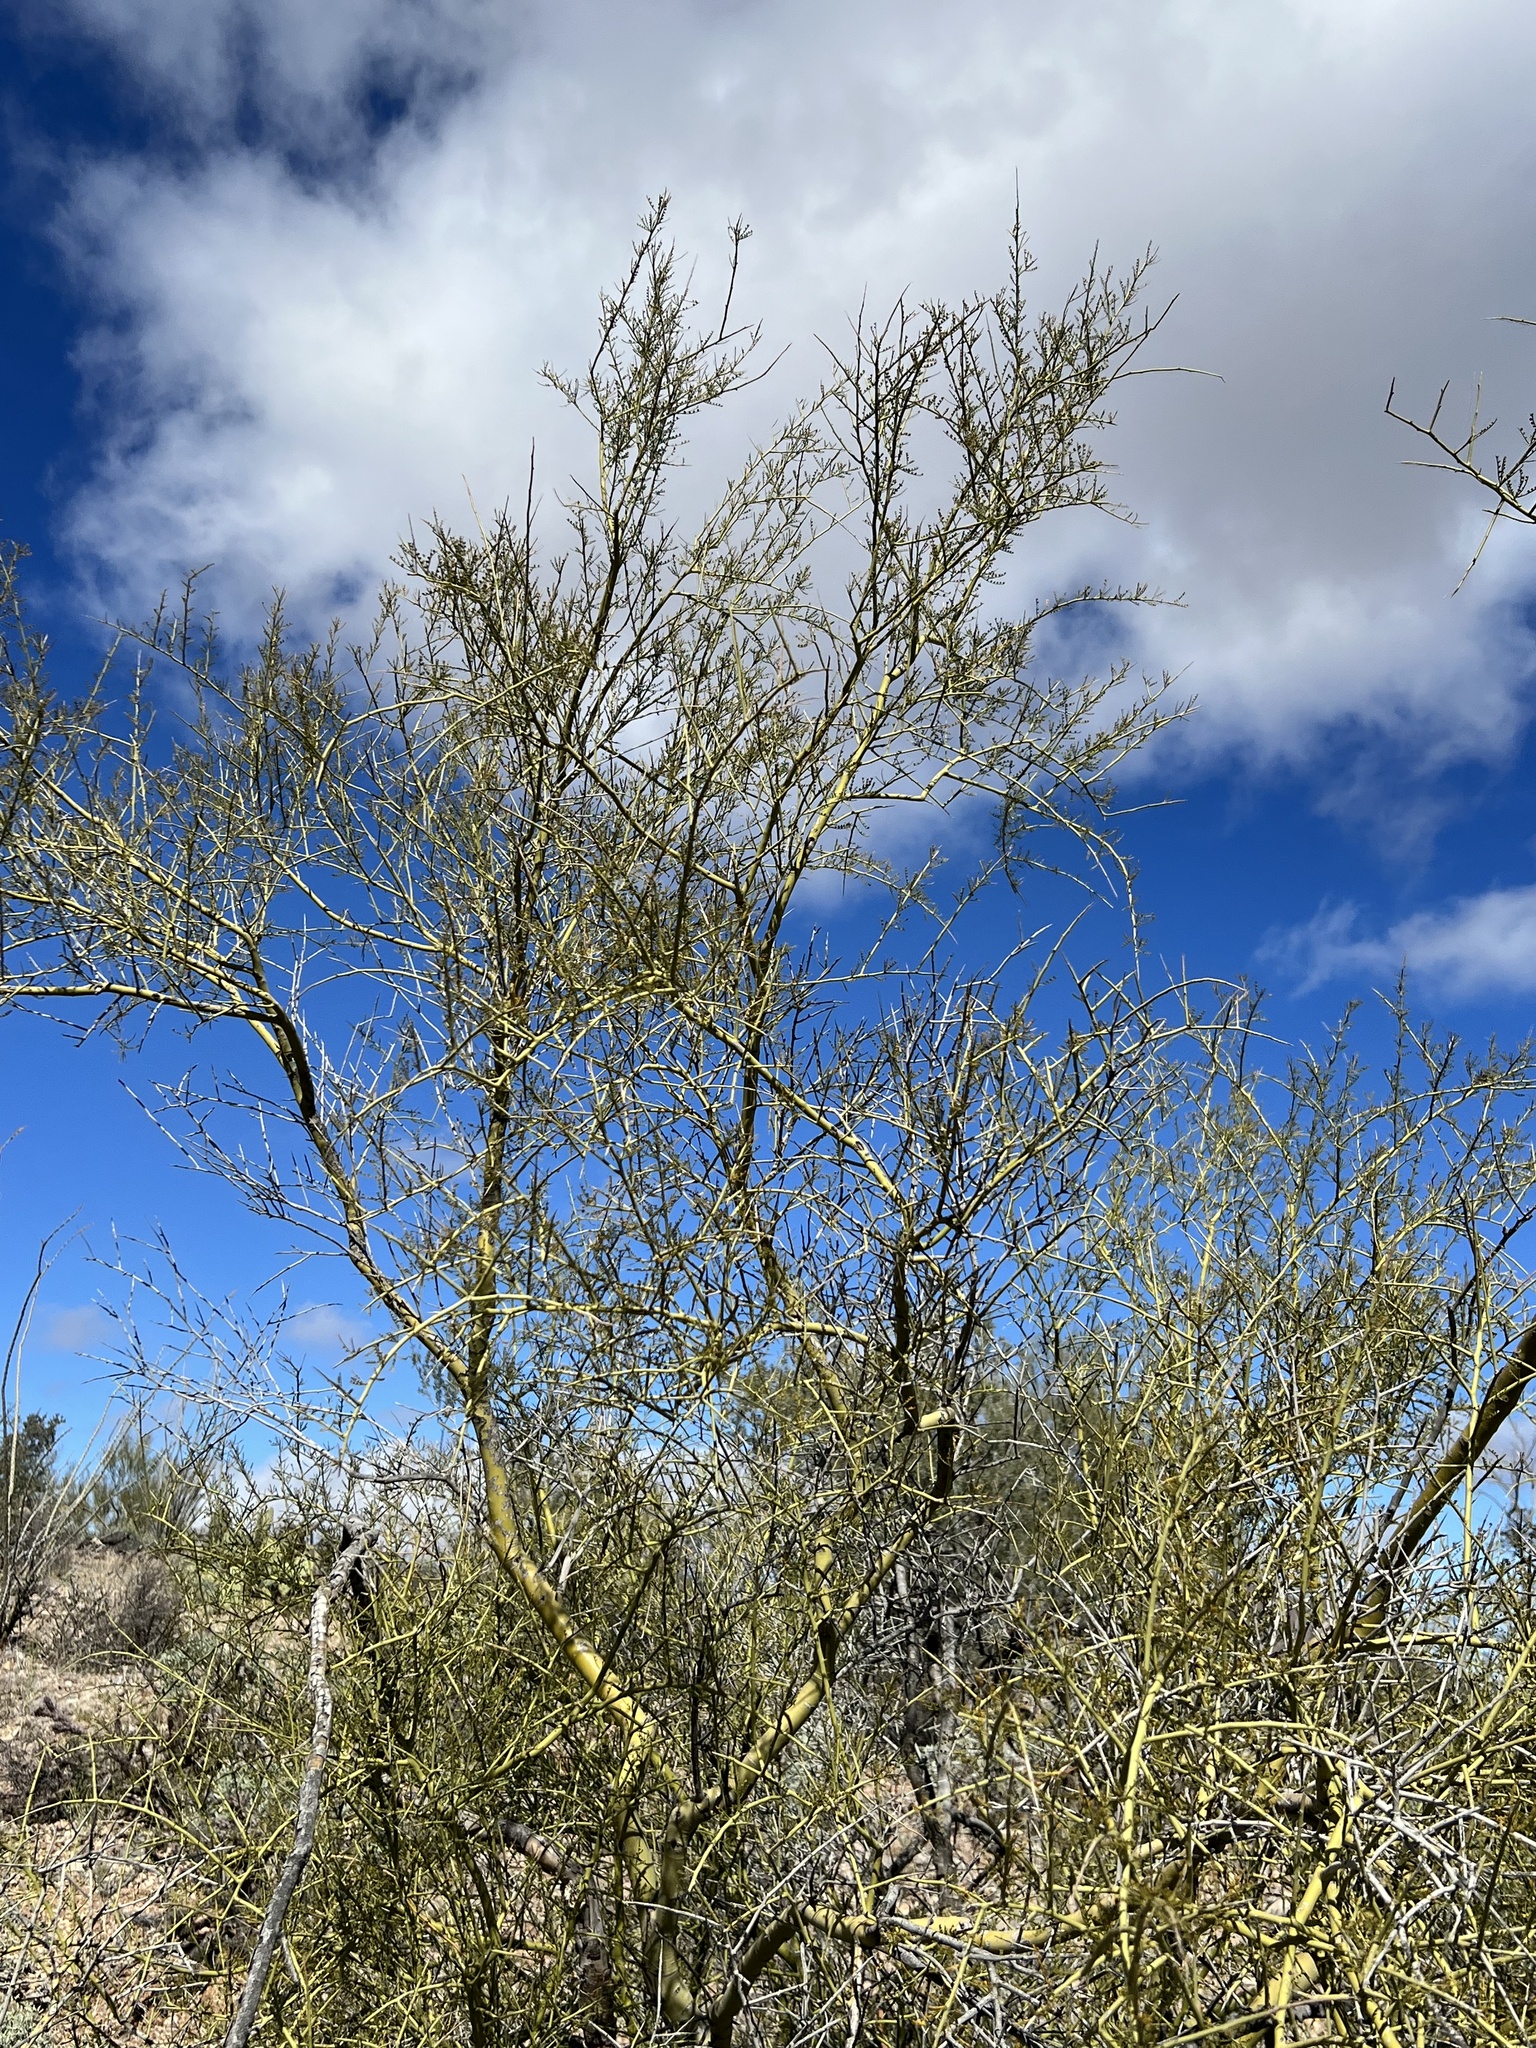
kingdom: Plantae
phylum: Tracheophyta
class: Magnoliopsida
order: Fabales
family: Fabaceae
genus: Parkinsonia
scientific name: Parkinsonia microphylla
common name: Yellow paloverde
